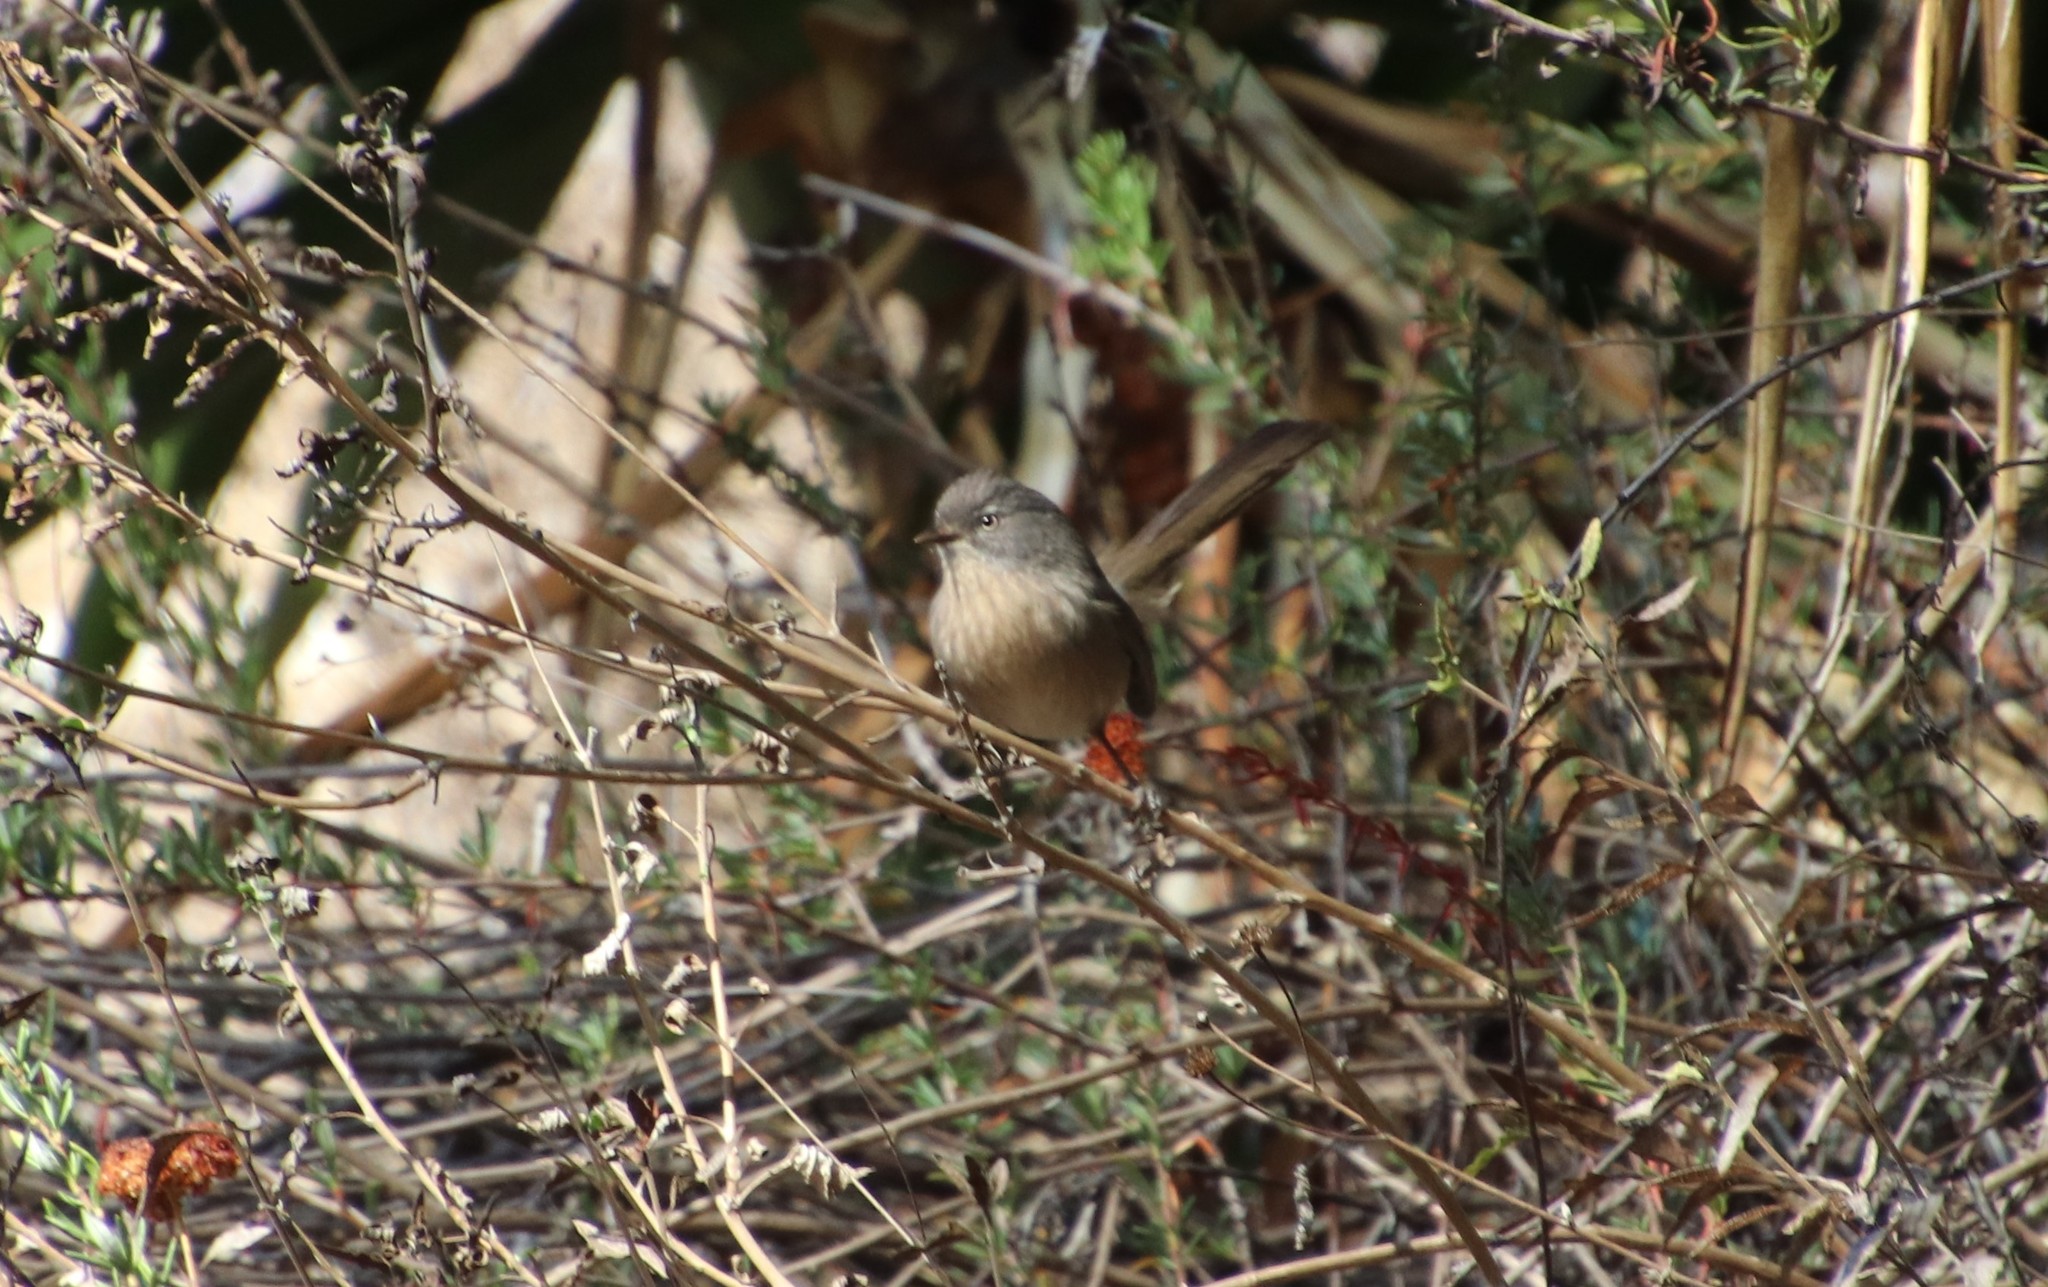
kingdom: Animalia
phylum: Chordata
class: Aves
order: Passeriformes
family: Sylviidae
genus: Chamaea
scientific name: Chamaea fasciata
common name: Wrentit
